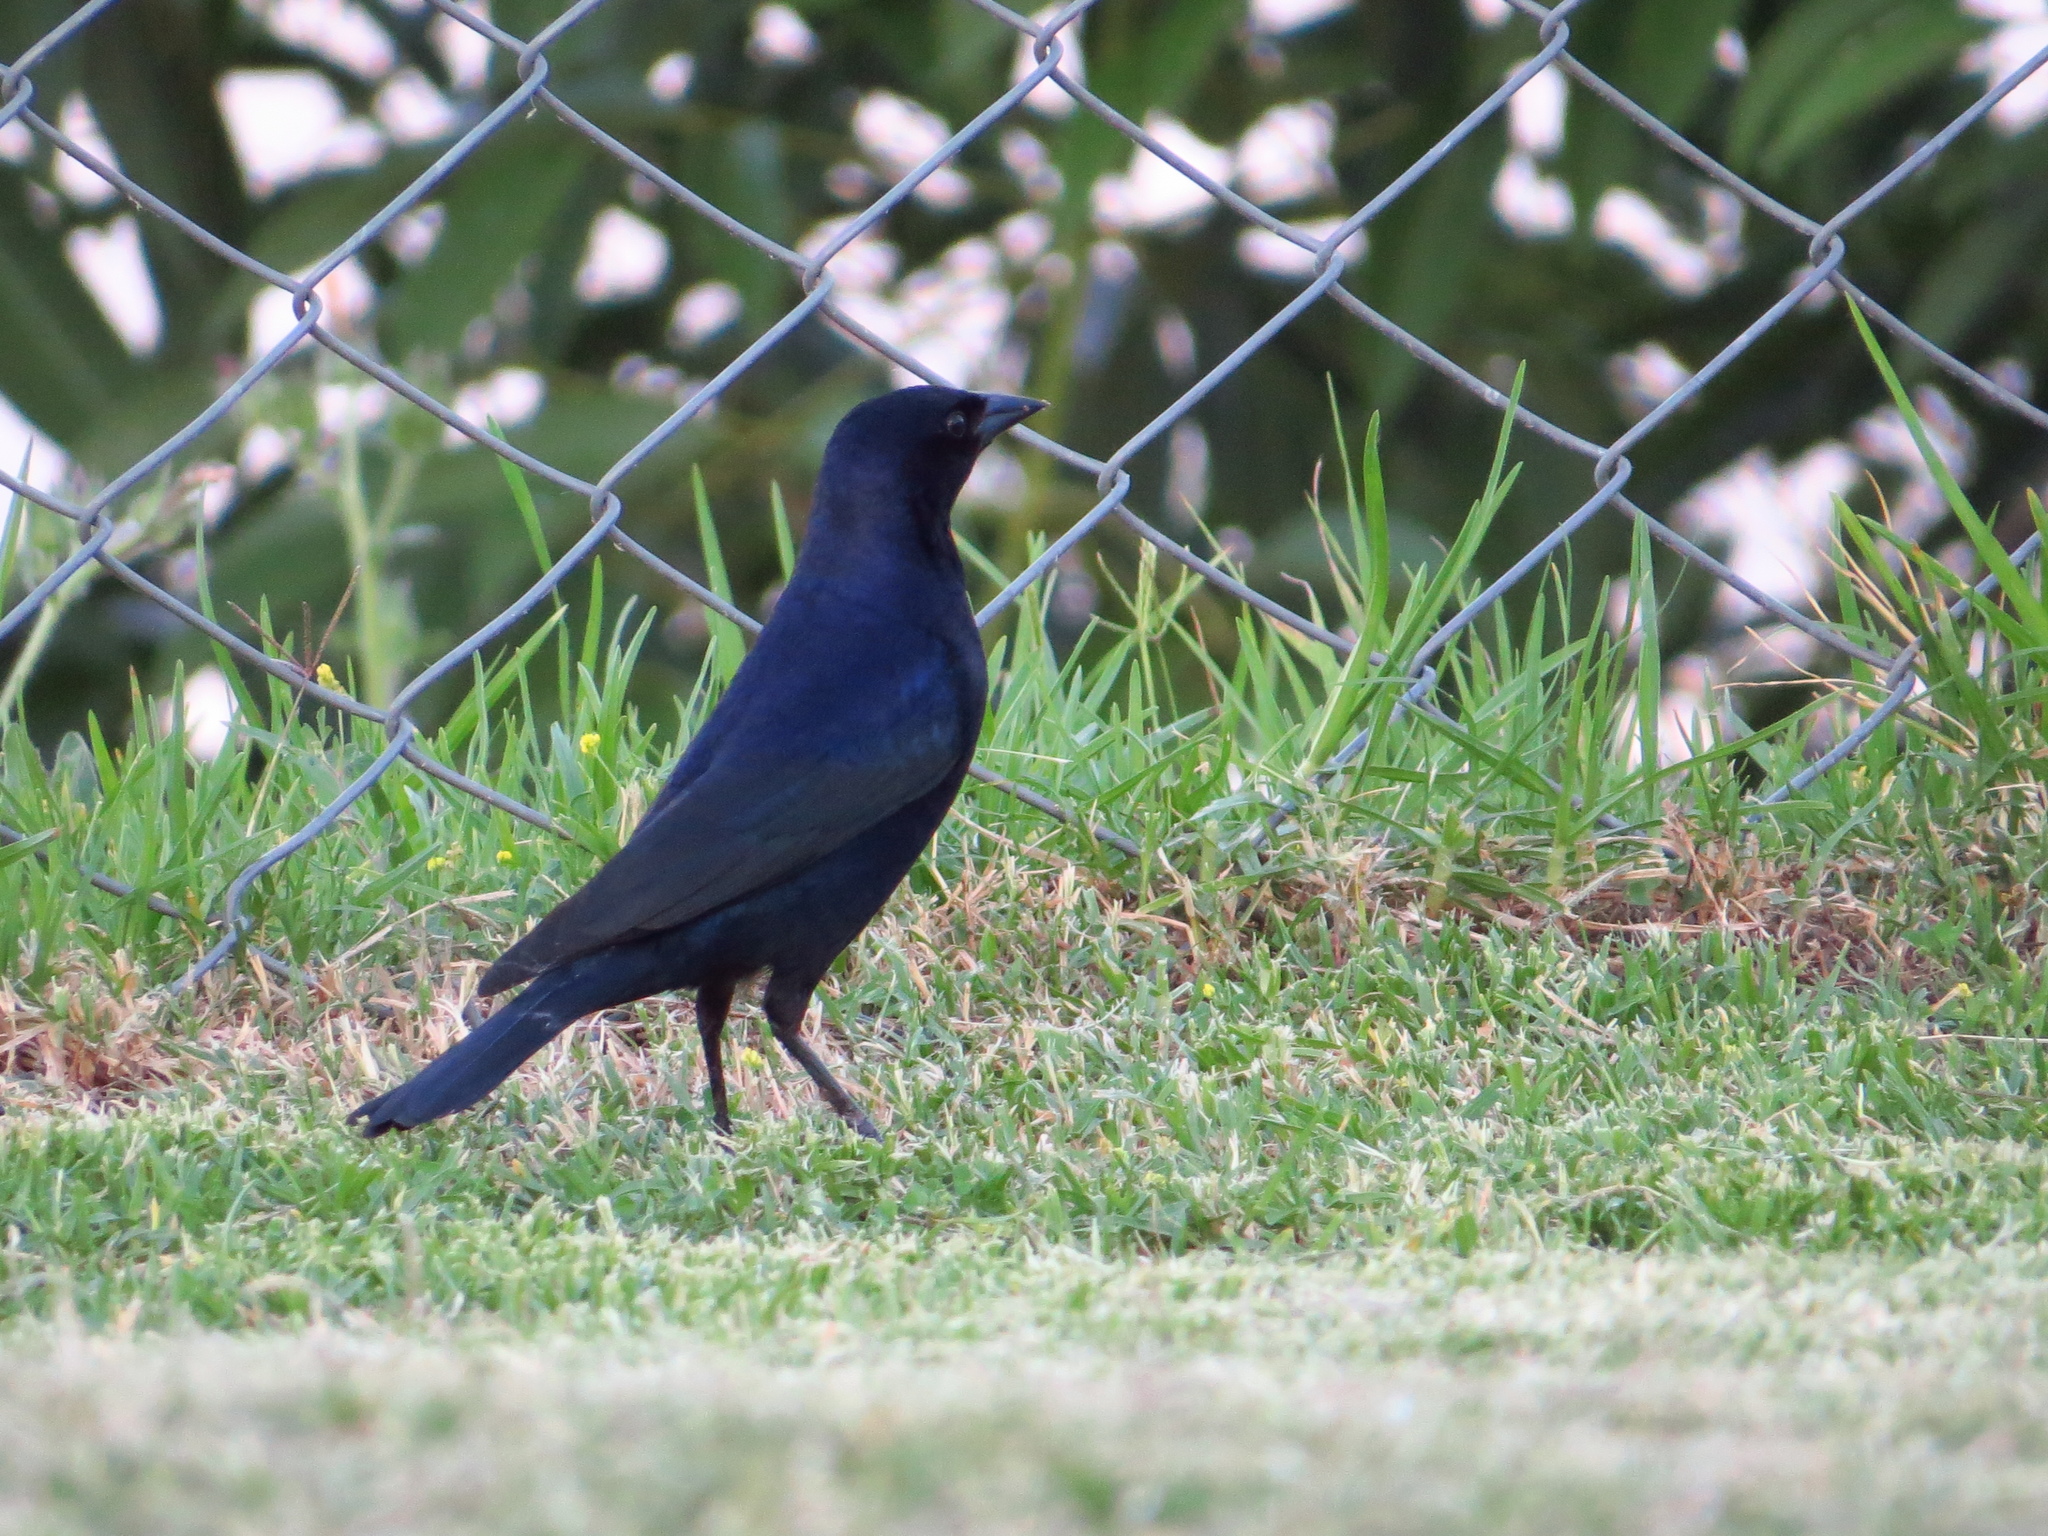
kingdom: Animalia
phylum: Chordata
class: Aves
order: Passeriformes
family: Icteridae
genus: Molothrus
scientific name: Molothrus bonariensis
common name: Shiny cowbird
